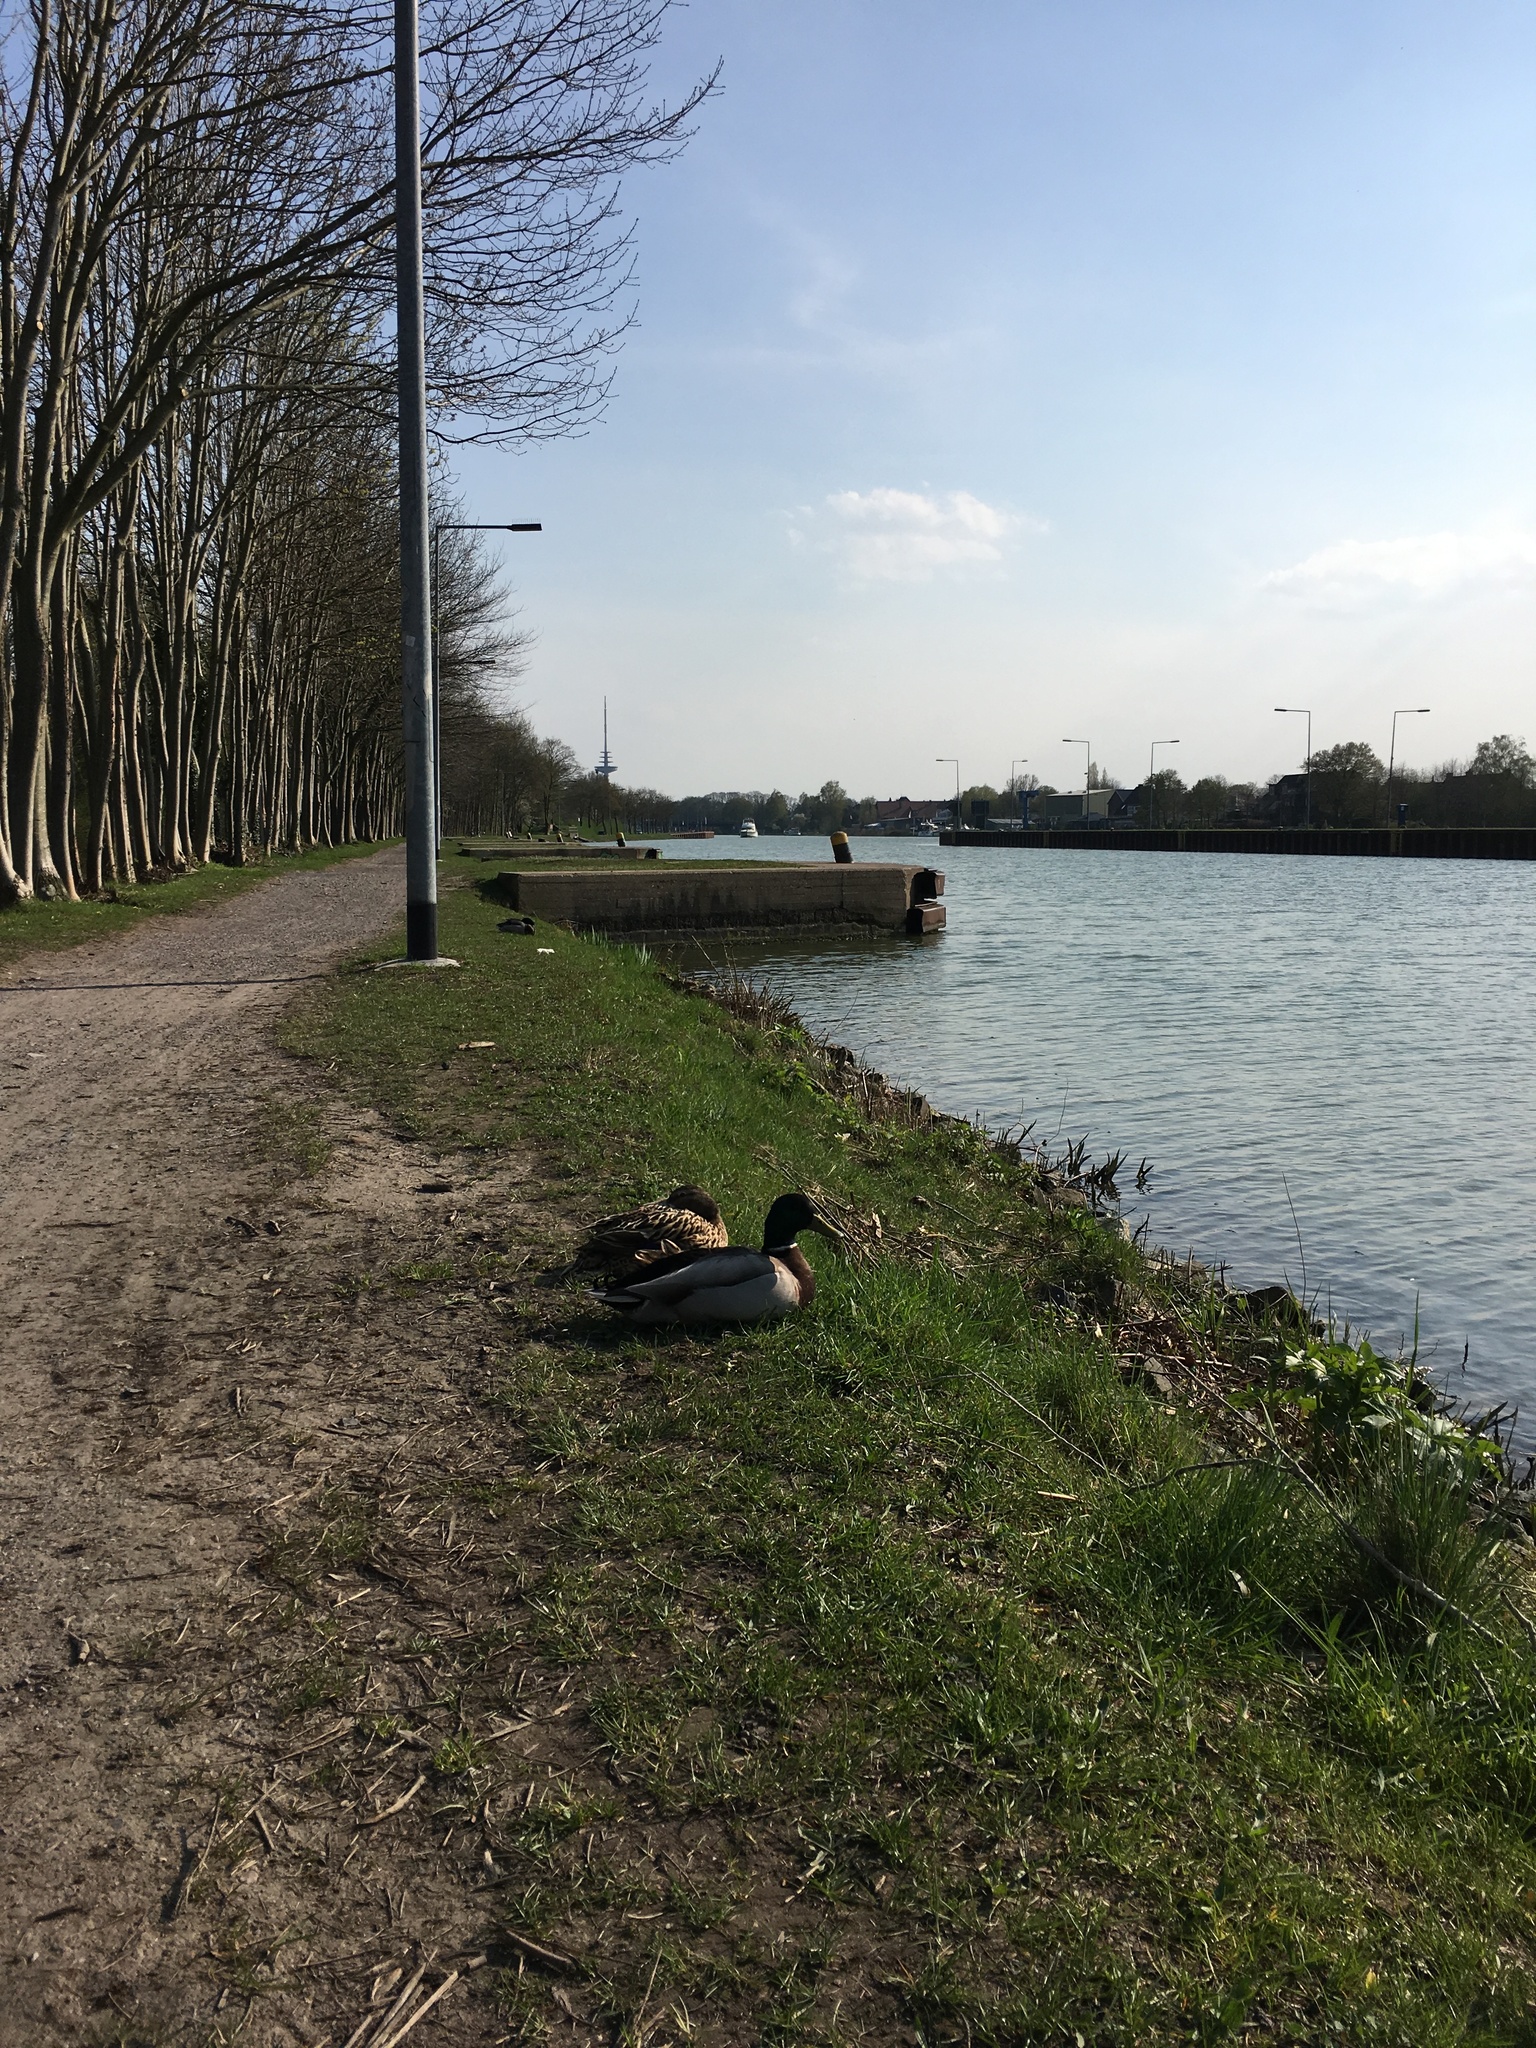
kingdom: Animalia
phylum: Chordata
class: Aves
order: Anseriformes
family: Anatidae
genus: Anas
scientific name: Anas platyrhynchos
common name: Mallard
